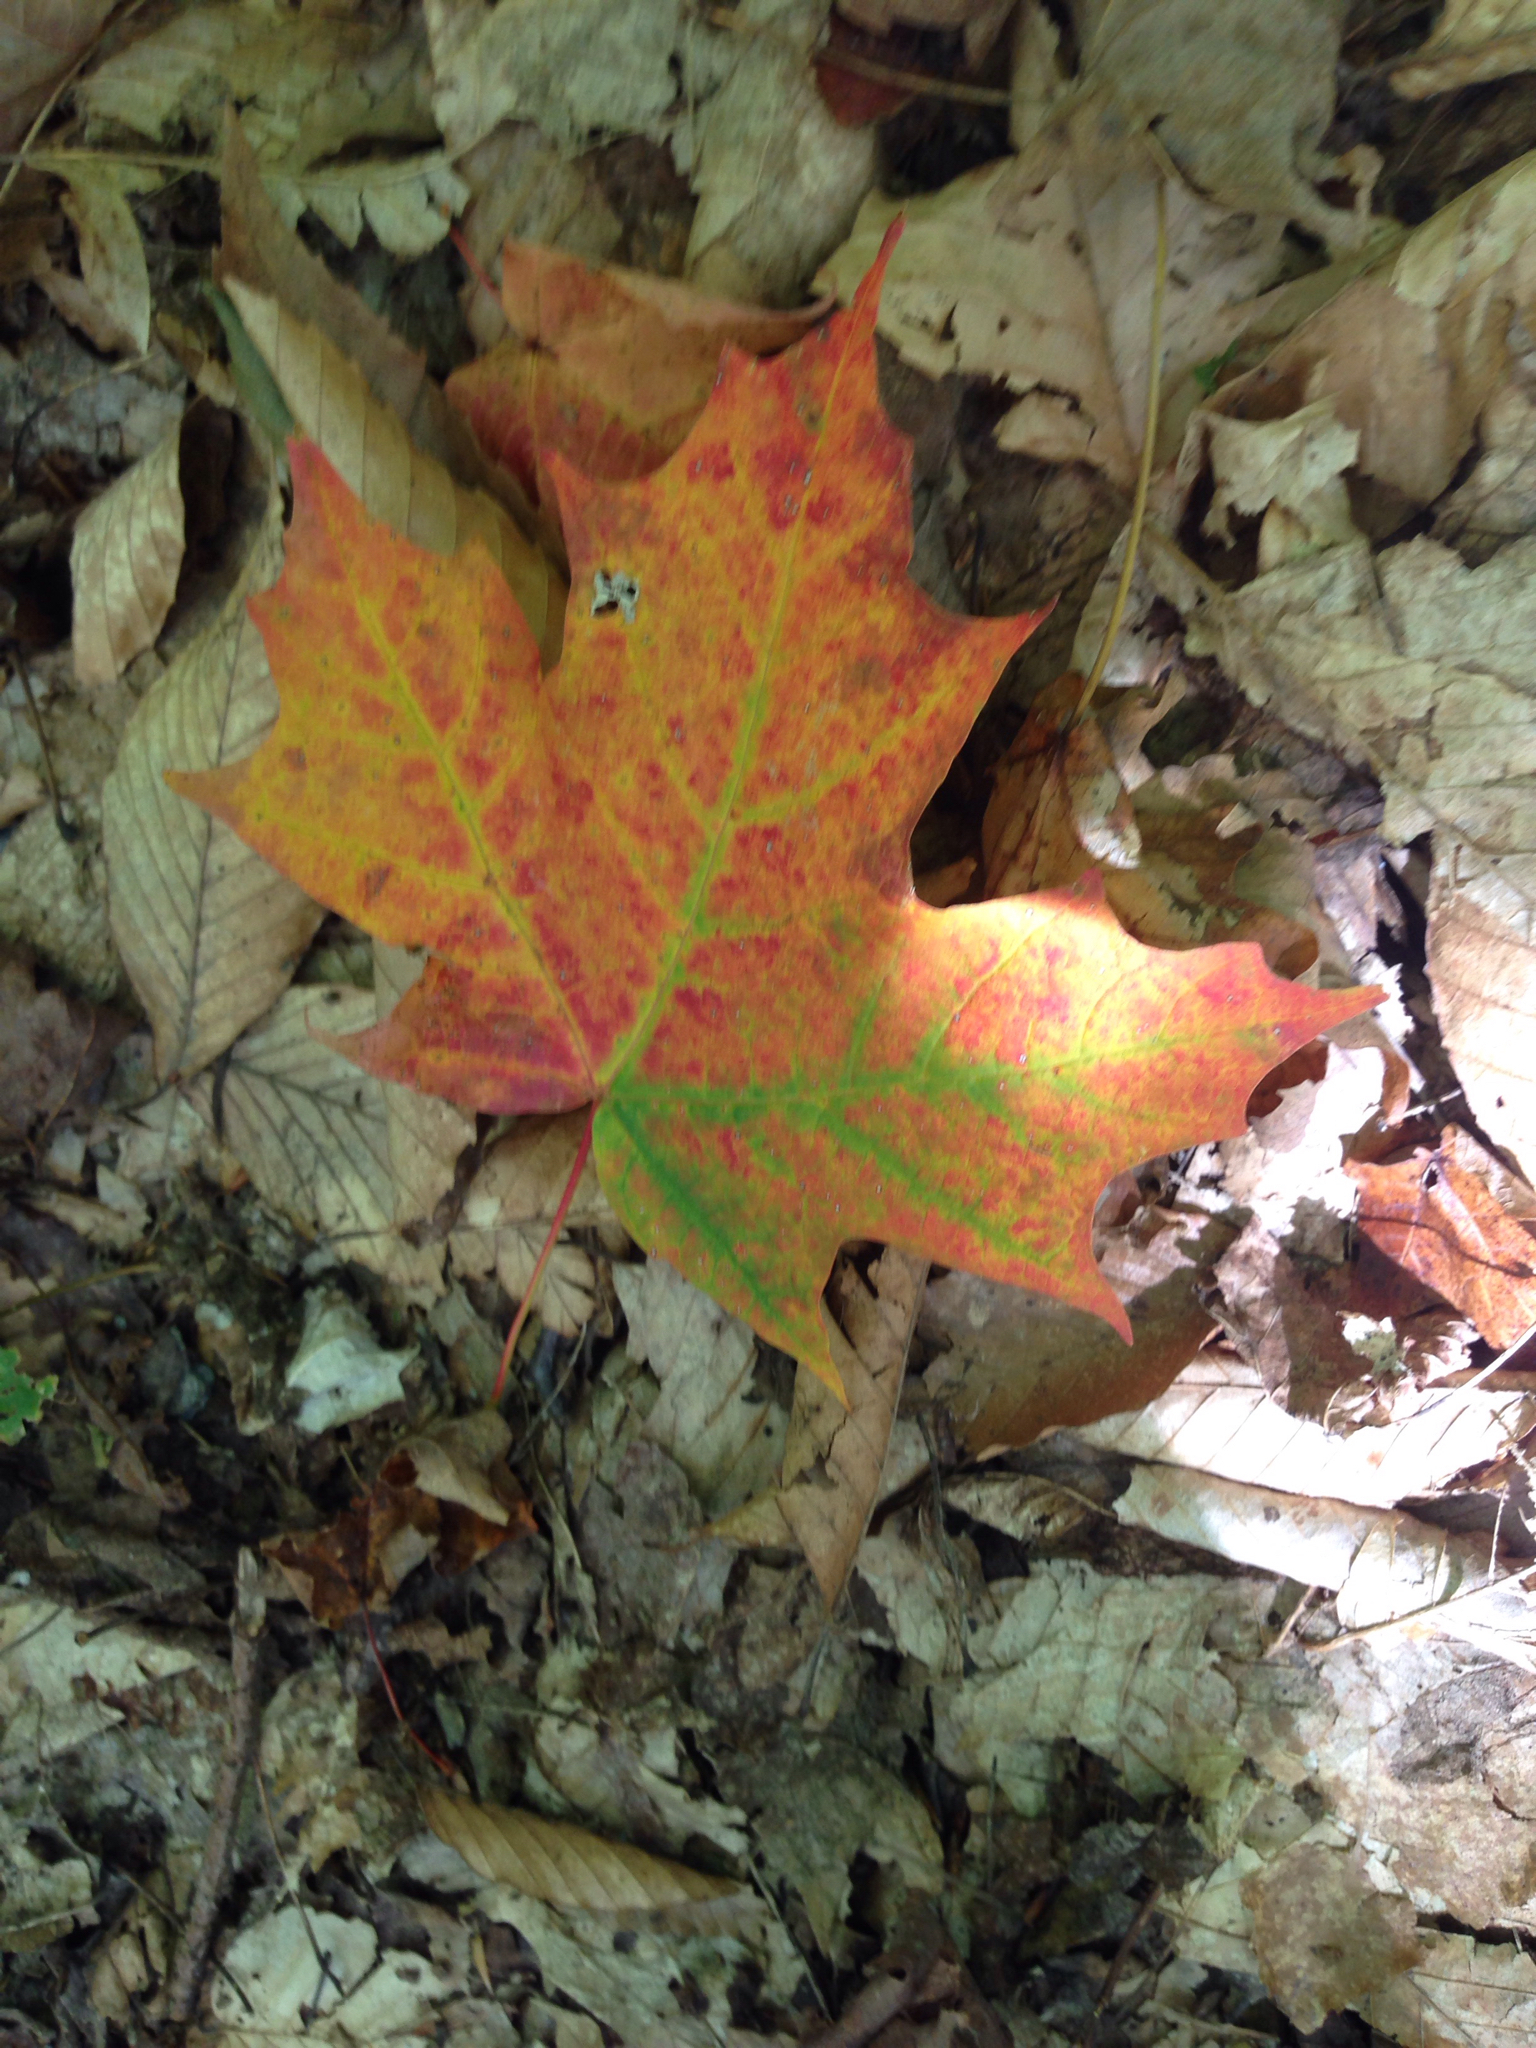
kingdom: Plantae
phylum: Tracheophyta
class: Magnoliopsida
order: Sapindales
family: Sapindaceae
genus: Acer
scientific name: Acer saccharum
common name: Sugar maple
